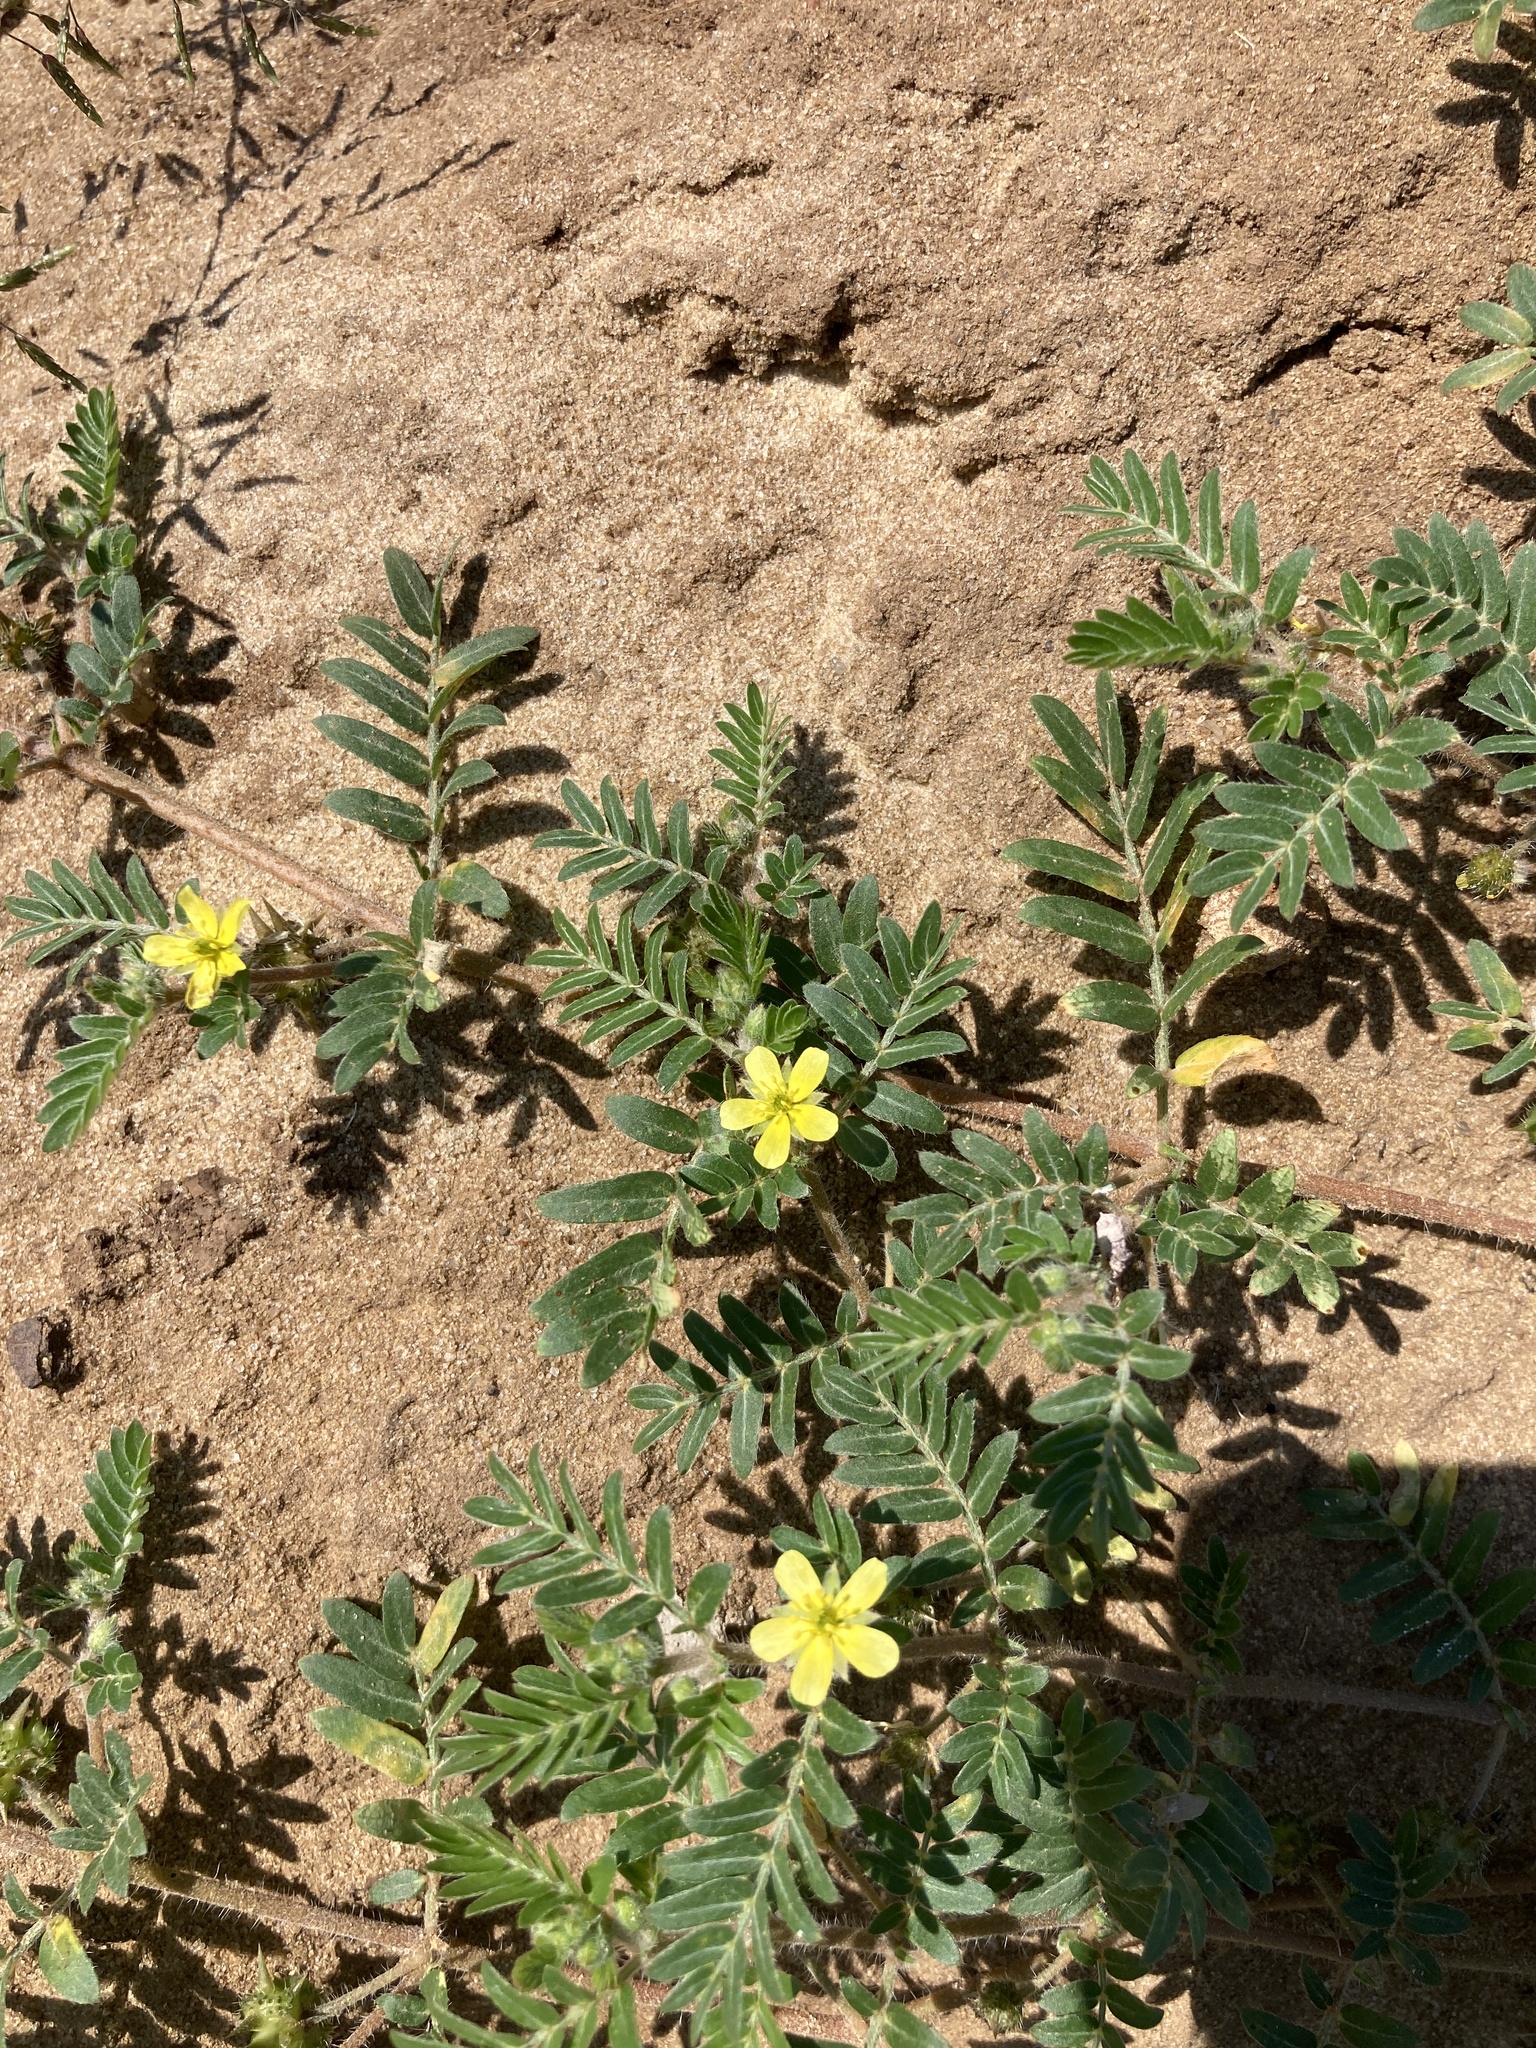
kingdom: Plantae
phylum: Tracheophyta
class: Magnoliopsida
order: Zygophyllales
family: Zygophyllaceae
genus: Tribulus
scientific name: Tribulus terrestris
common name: Puncturevine
